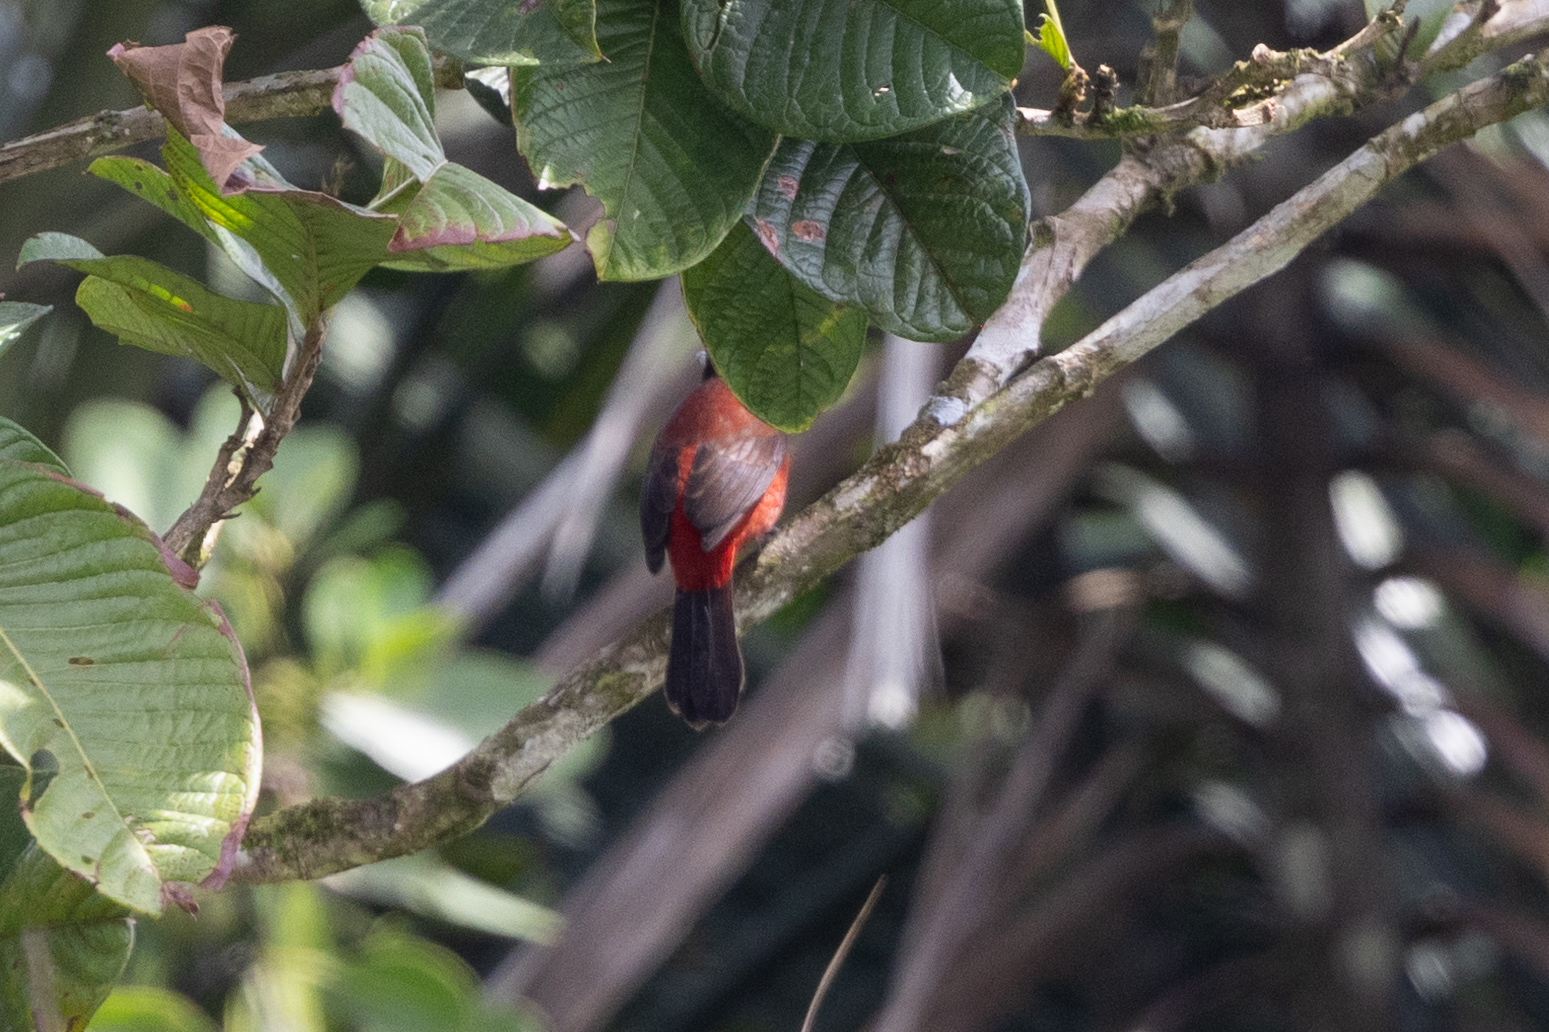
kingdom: Animalia
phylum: Chordata
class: Aves
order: Passeriformes
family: Thraupidae
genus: Ramphocelus
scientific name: Ramphocelus dimidiatus
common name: Crimson-backed tanager
